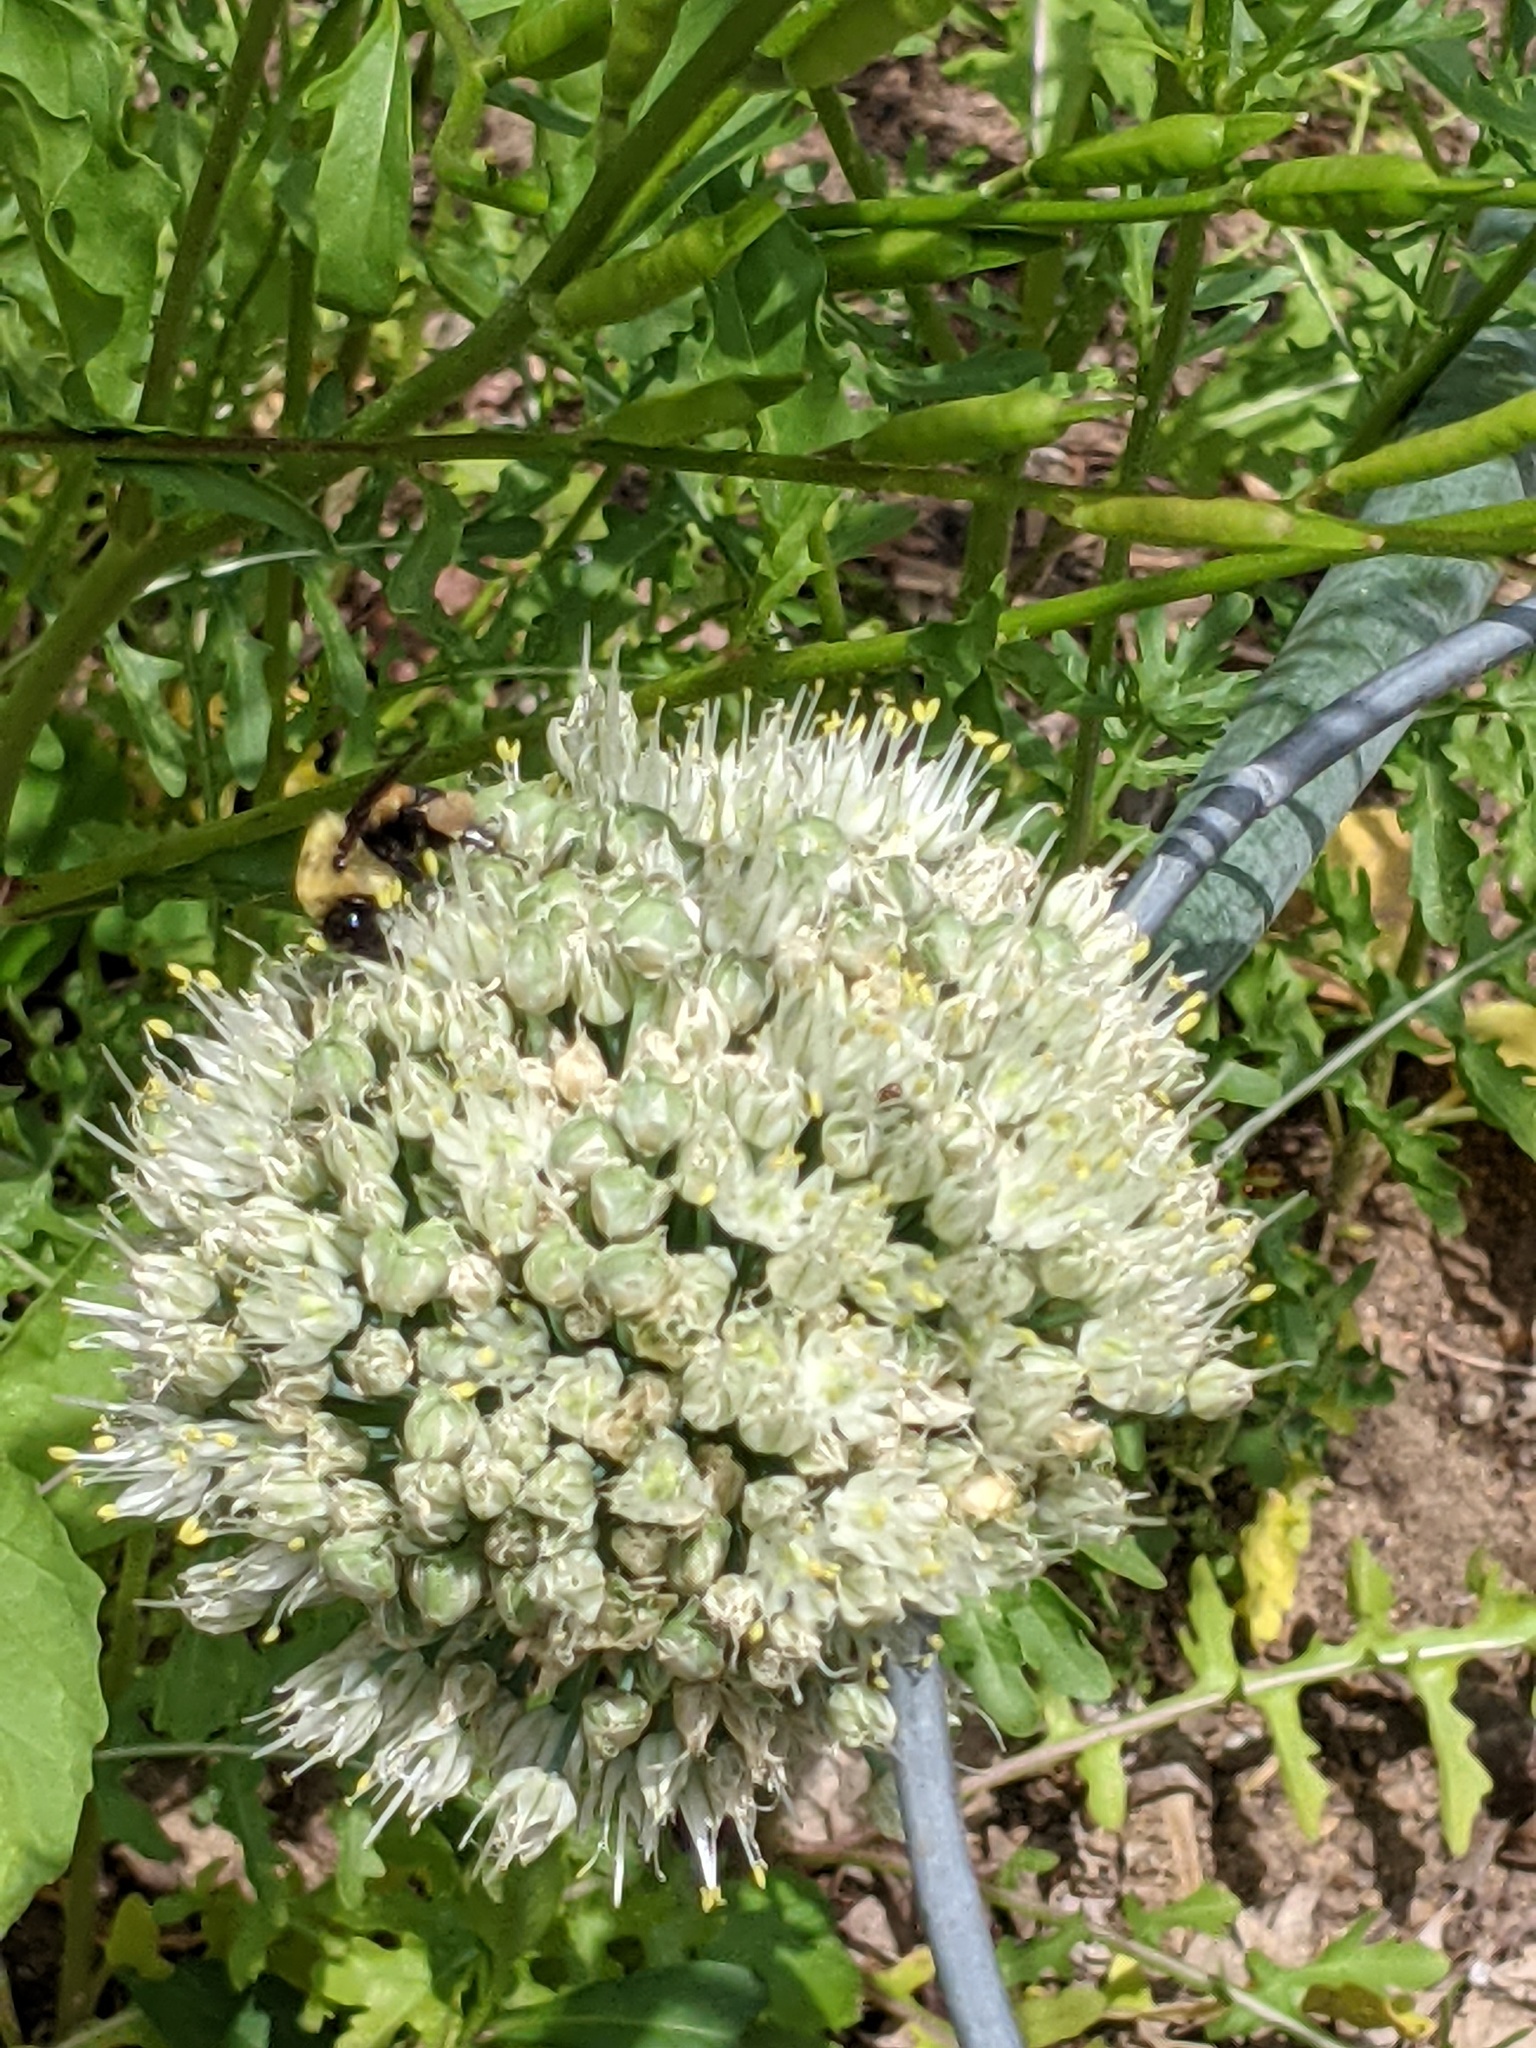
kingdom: Animalia
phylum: Arthropoda
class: Insecta
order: Hymenoptera
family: Apidae
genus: Bombus
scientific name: Bombus griseocollis
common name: Brown-belted bumble bee
